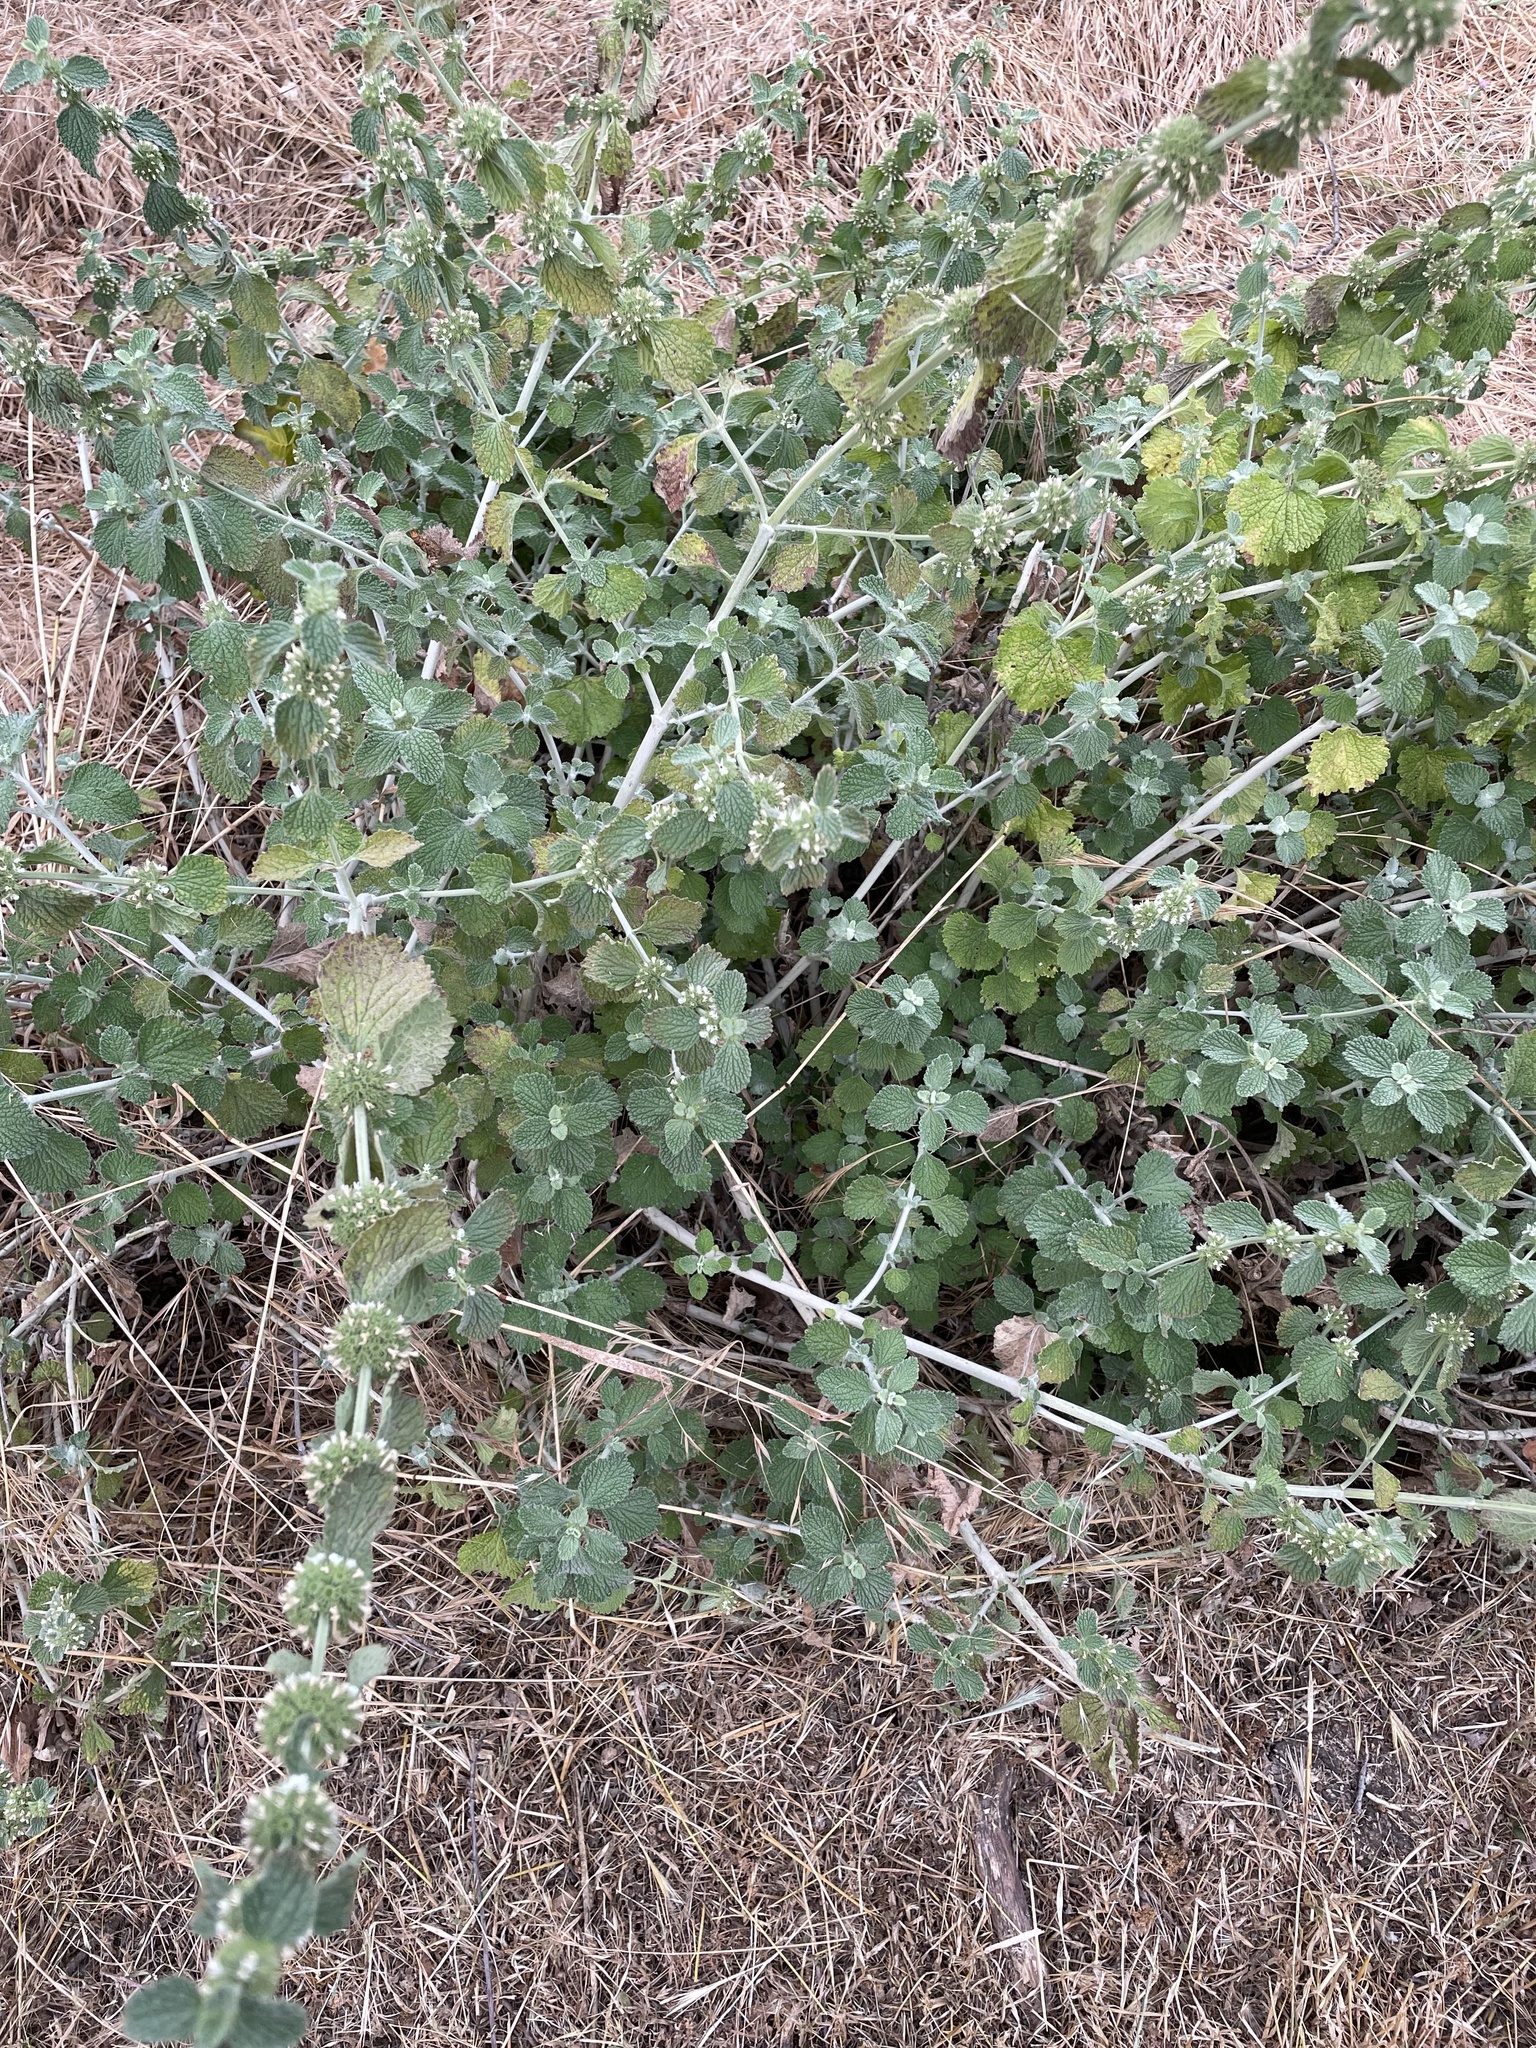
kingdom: Plantae
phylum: Tracheophyta
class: Magnoliopsida
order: Lamiales
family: Lamiaceae
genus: Marrubium
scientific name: Marrubium vulgare
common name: Horehound
